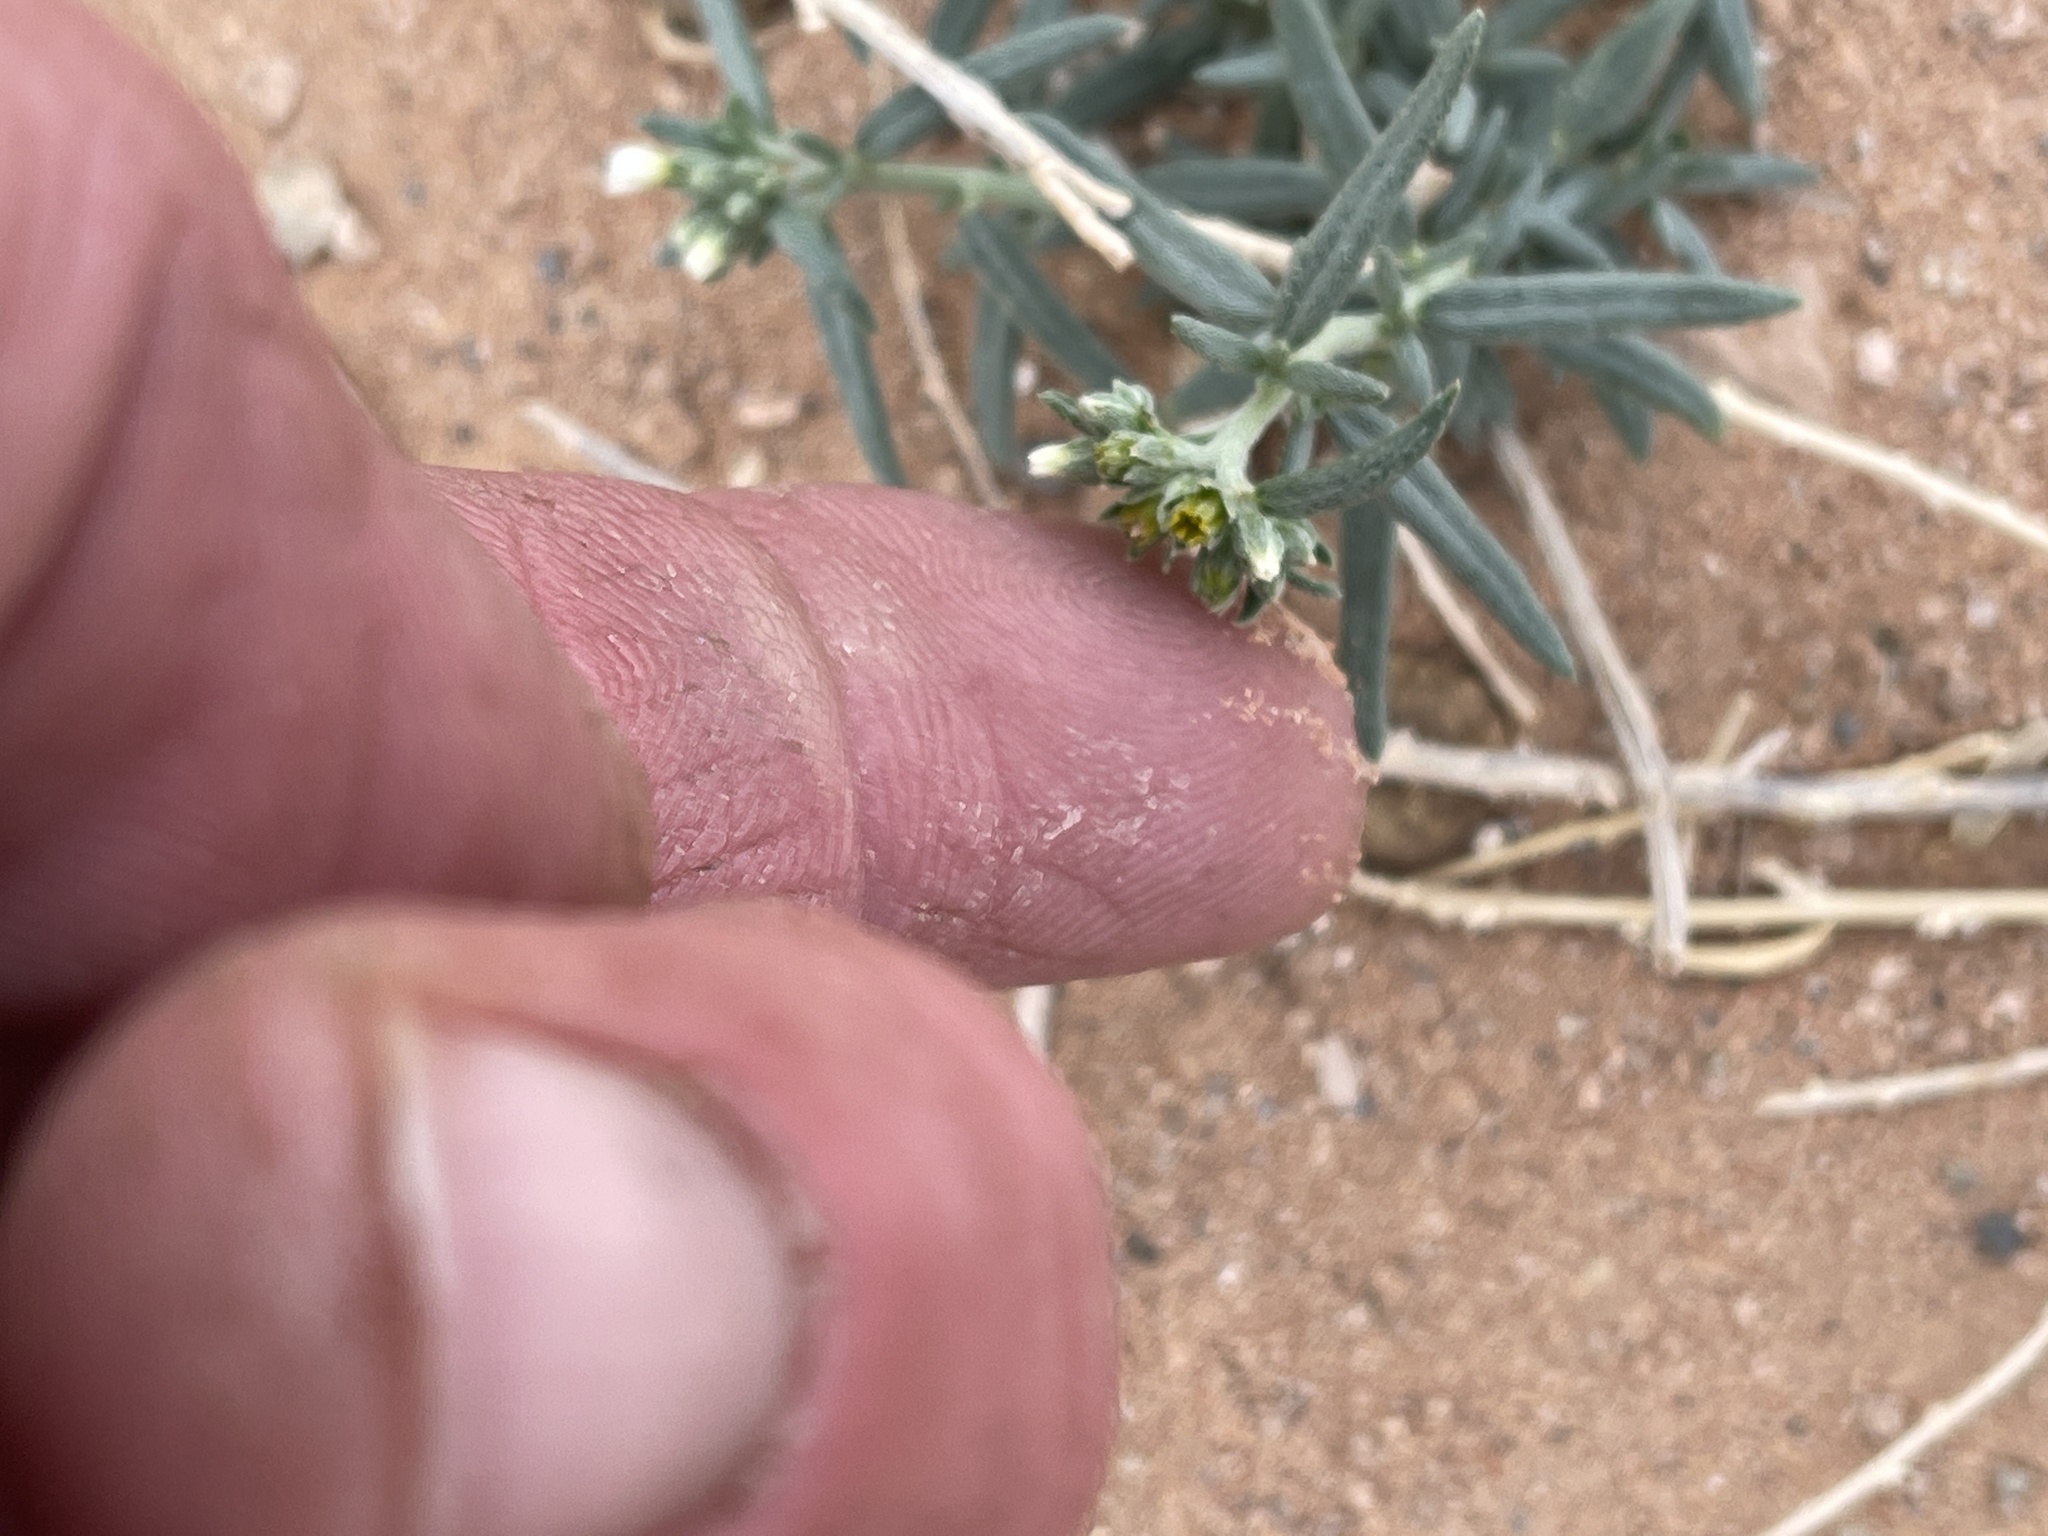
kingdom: Plantae
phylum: Tracheophyta
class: Magnoliopsida
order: Boraginales
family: Heliotropiaceae
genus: Euploca
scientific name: Euploca greggii
